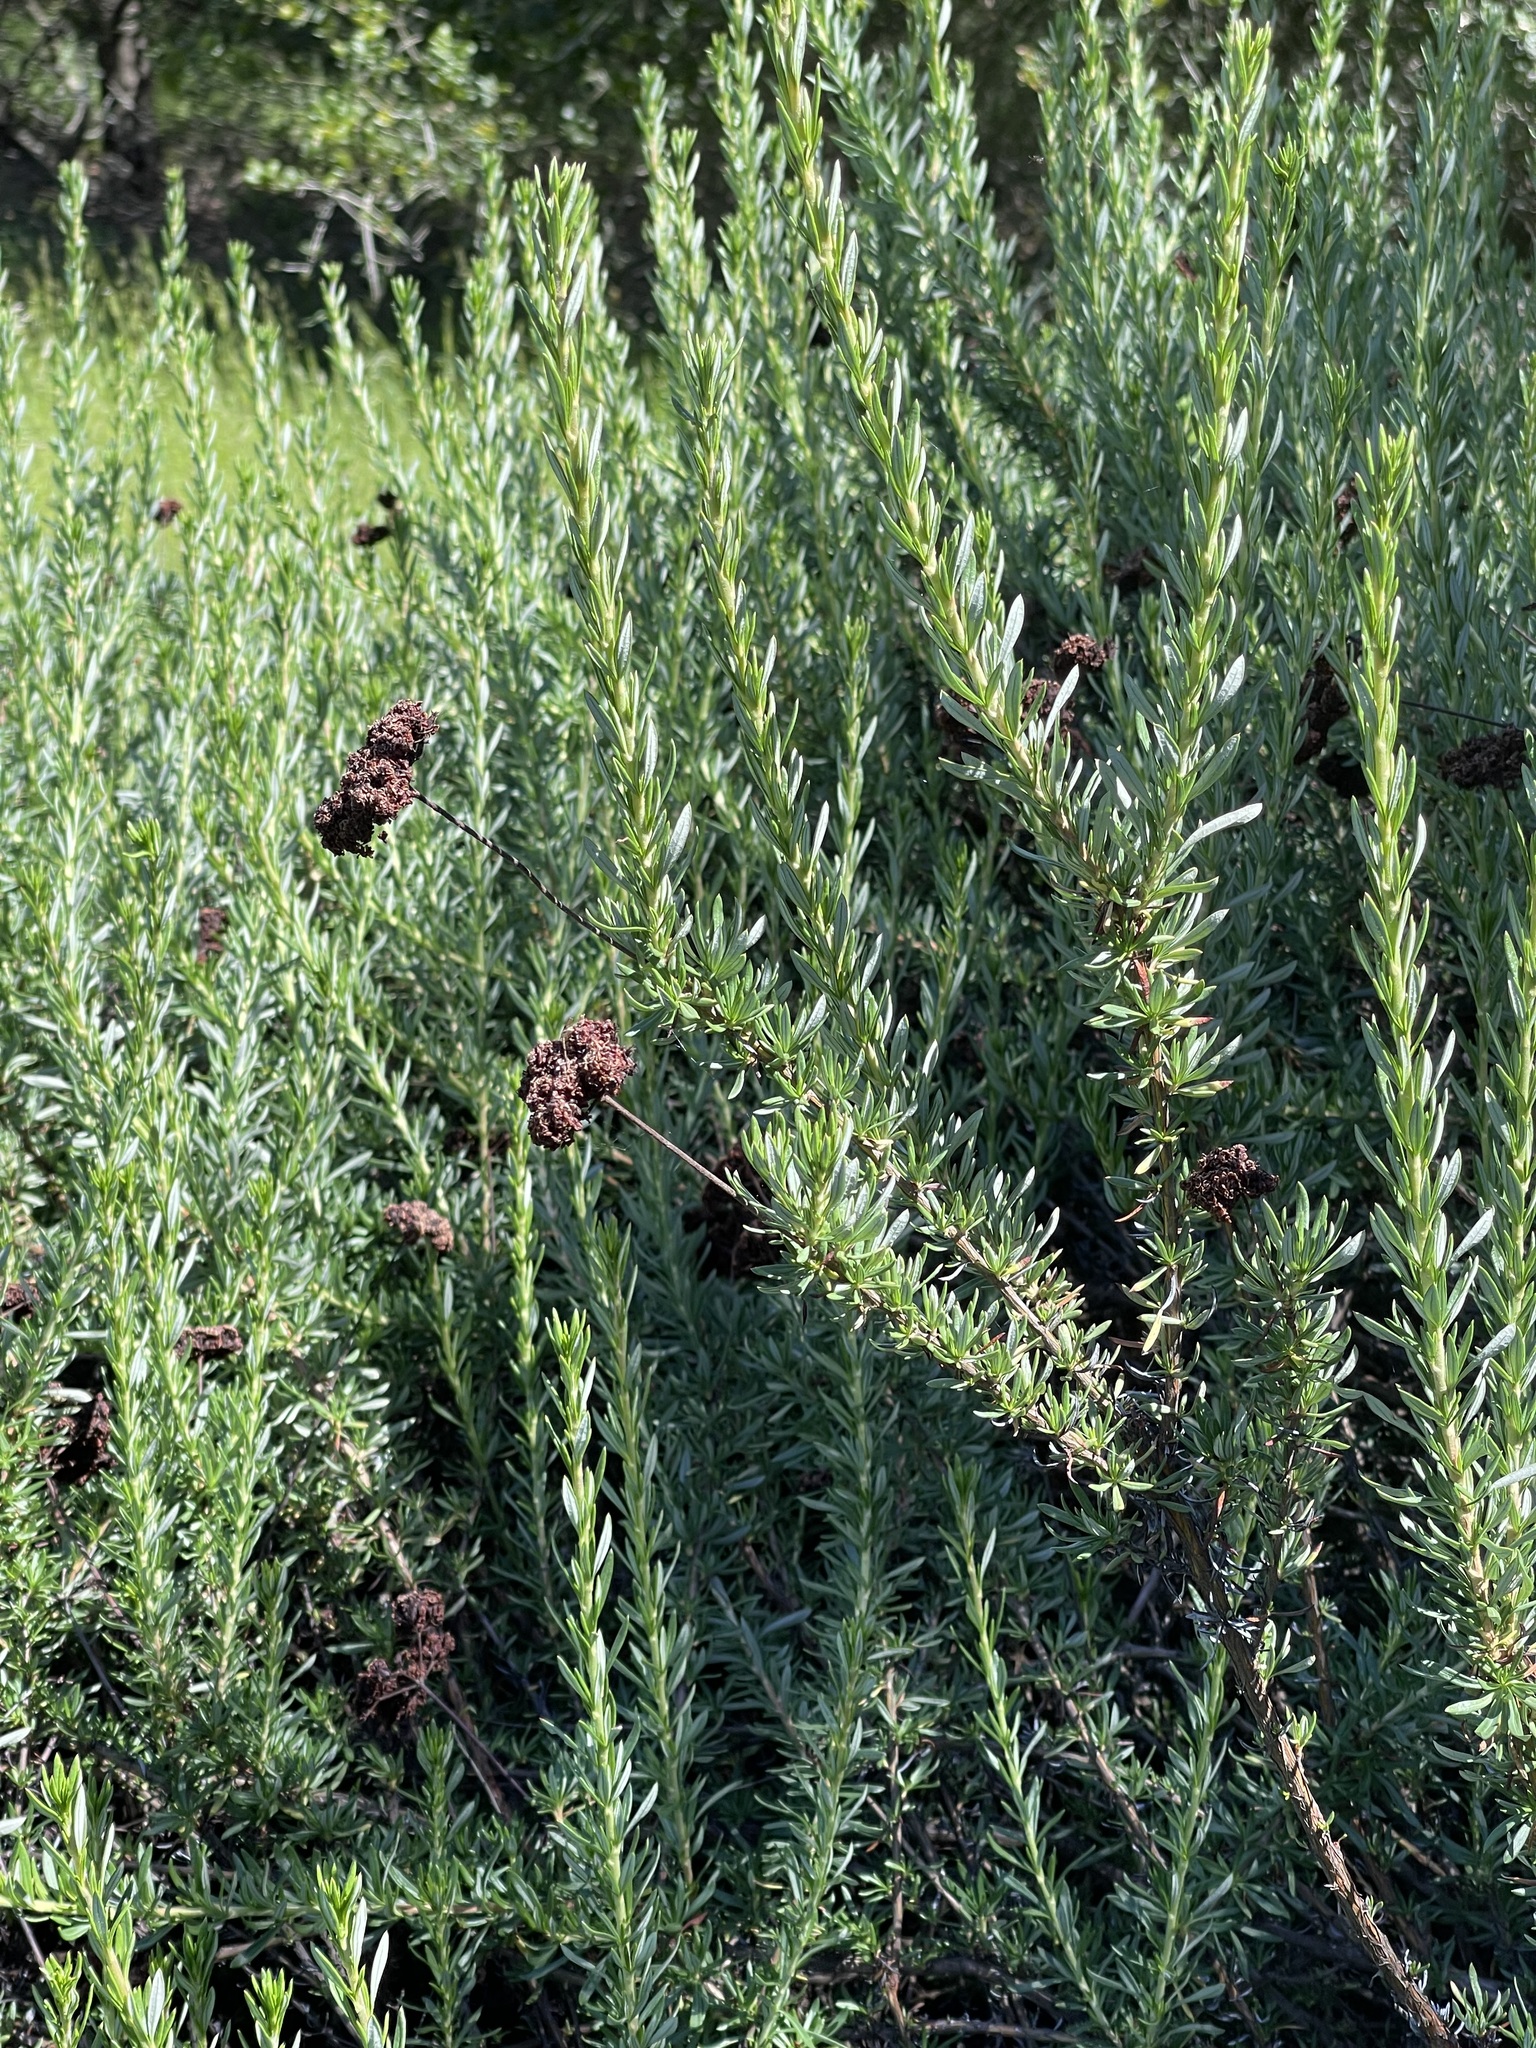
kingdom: Plantae
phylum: Tracheophyta
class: Magnoliopsida
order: Caryophyllales
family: Polygonaceae
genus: Eriogonum
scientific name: Eriogonum fasciculatum
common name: California wild buckwheat
